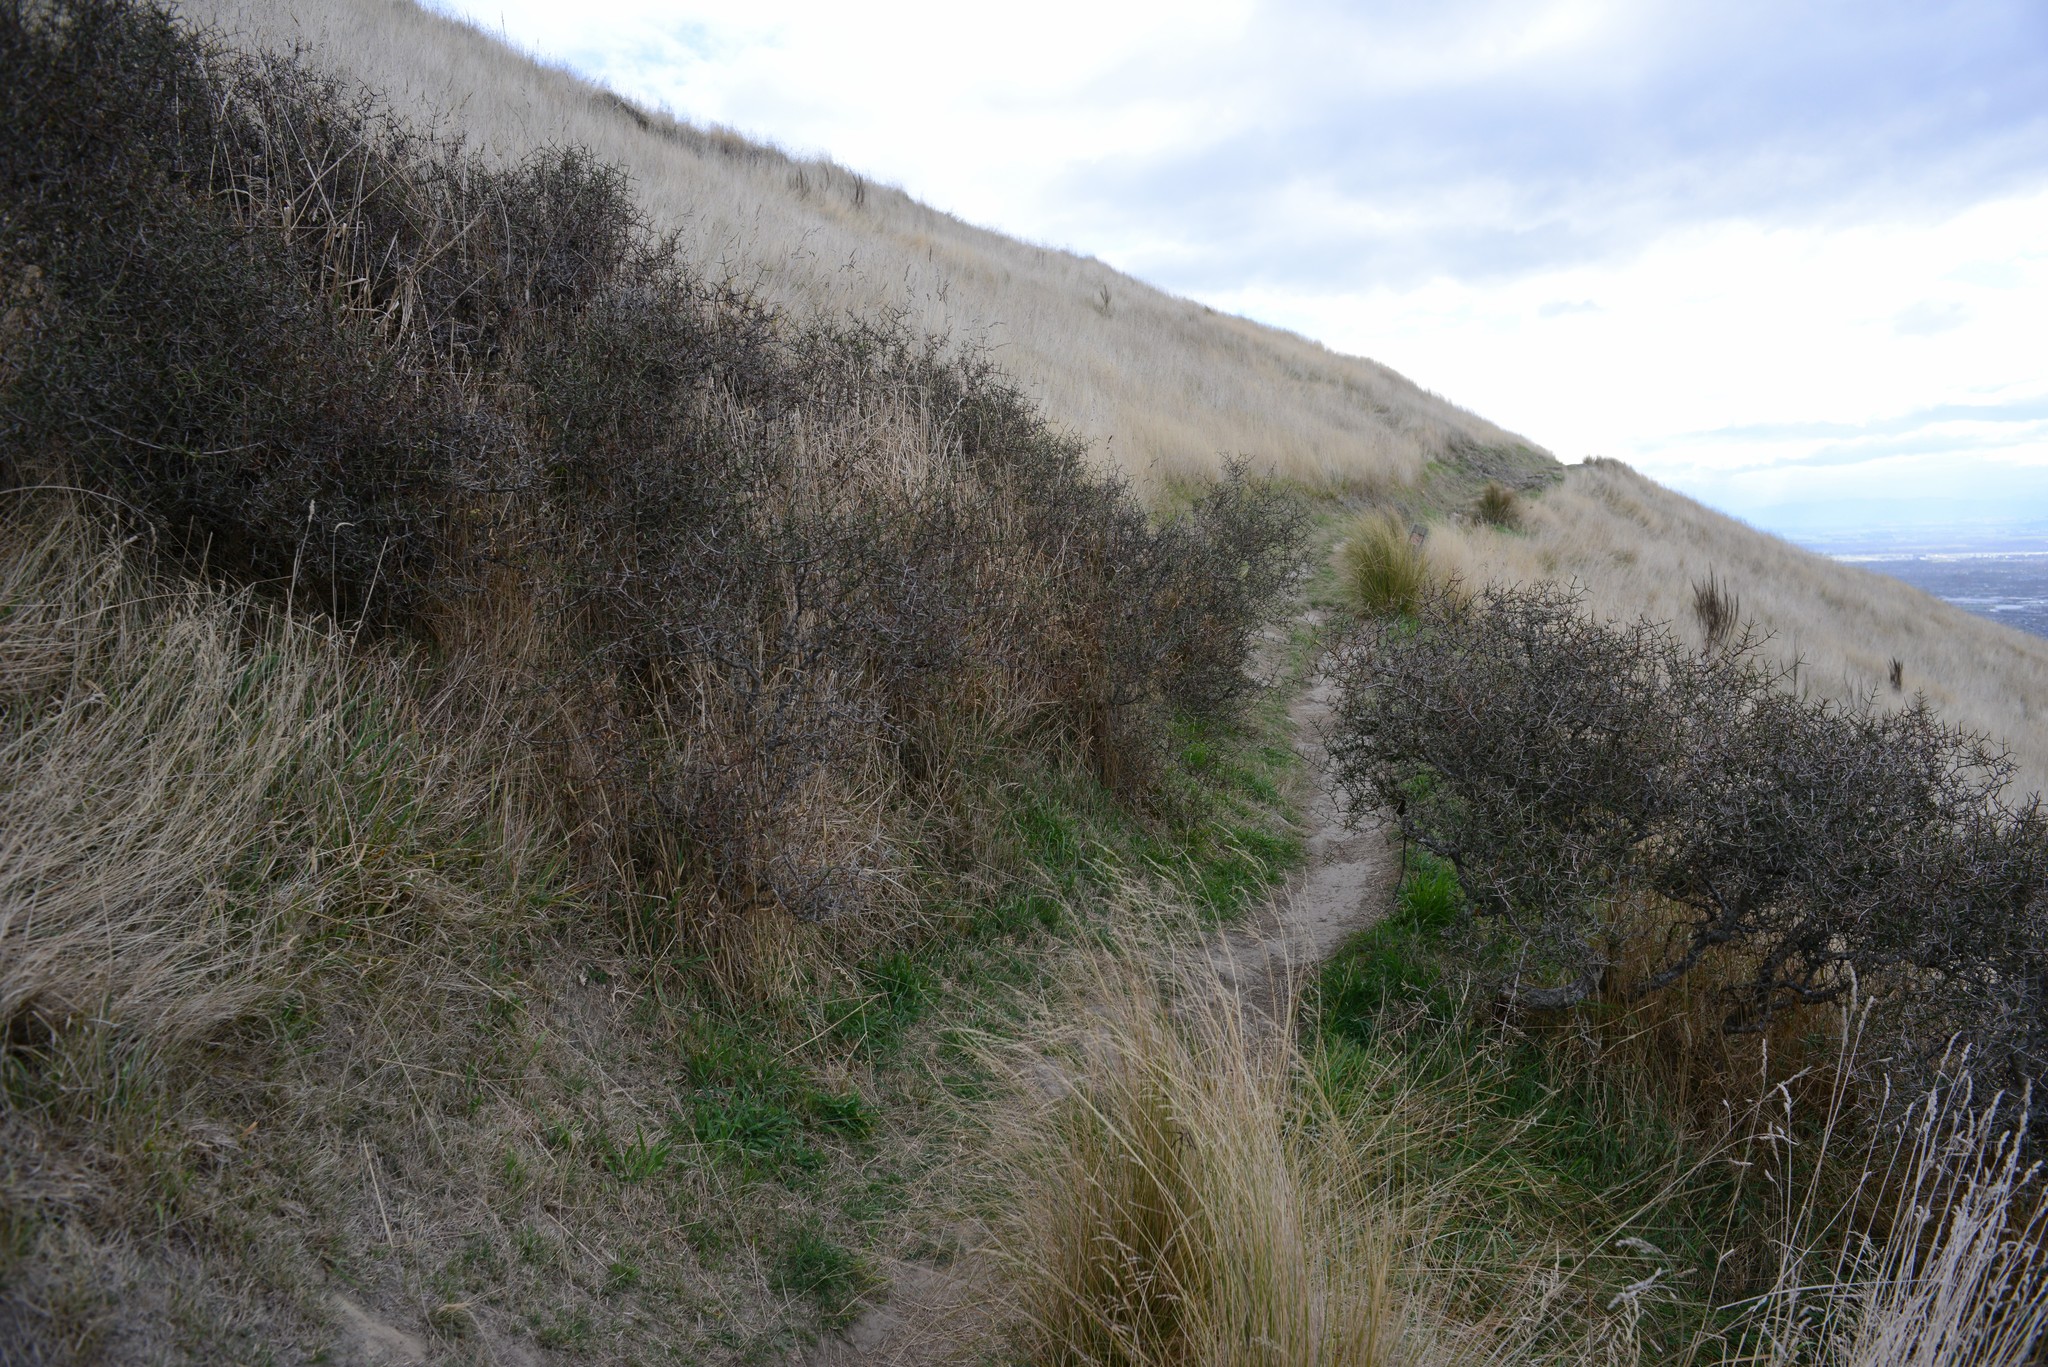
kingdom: Plantae
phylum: Tracheophyta
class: Magnoliopsida
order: Rosales
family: Rhamnaceae
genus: Discaria
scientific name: Discaria toumatou
